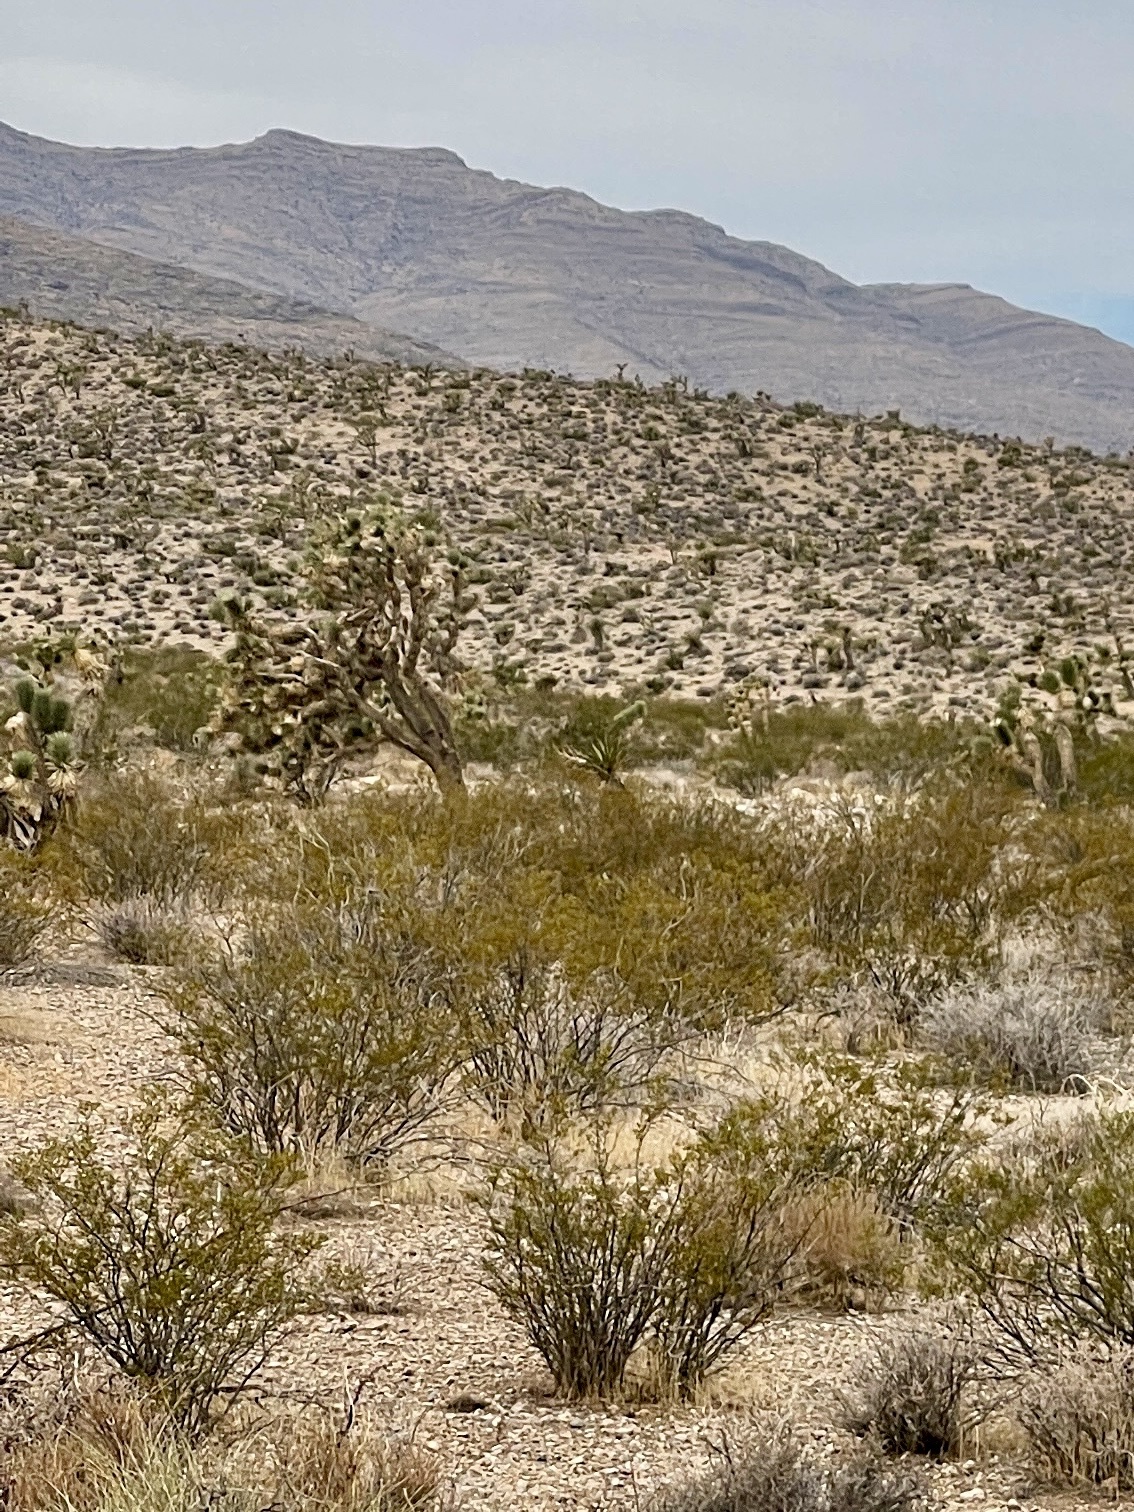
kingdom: Plantae
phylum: Tracheophyta
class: Liliopsida
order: Asparagales
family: Asparagaceae
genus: Yucca
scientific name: Yucca brevifolia
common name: Joshua tree
